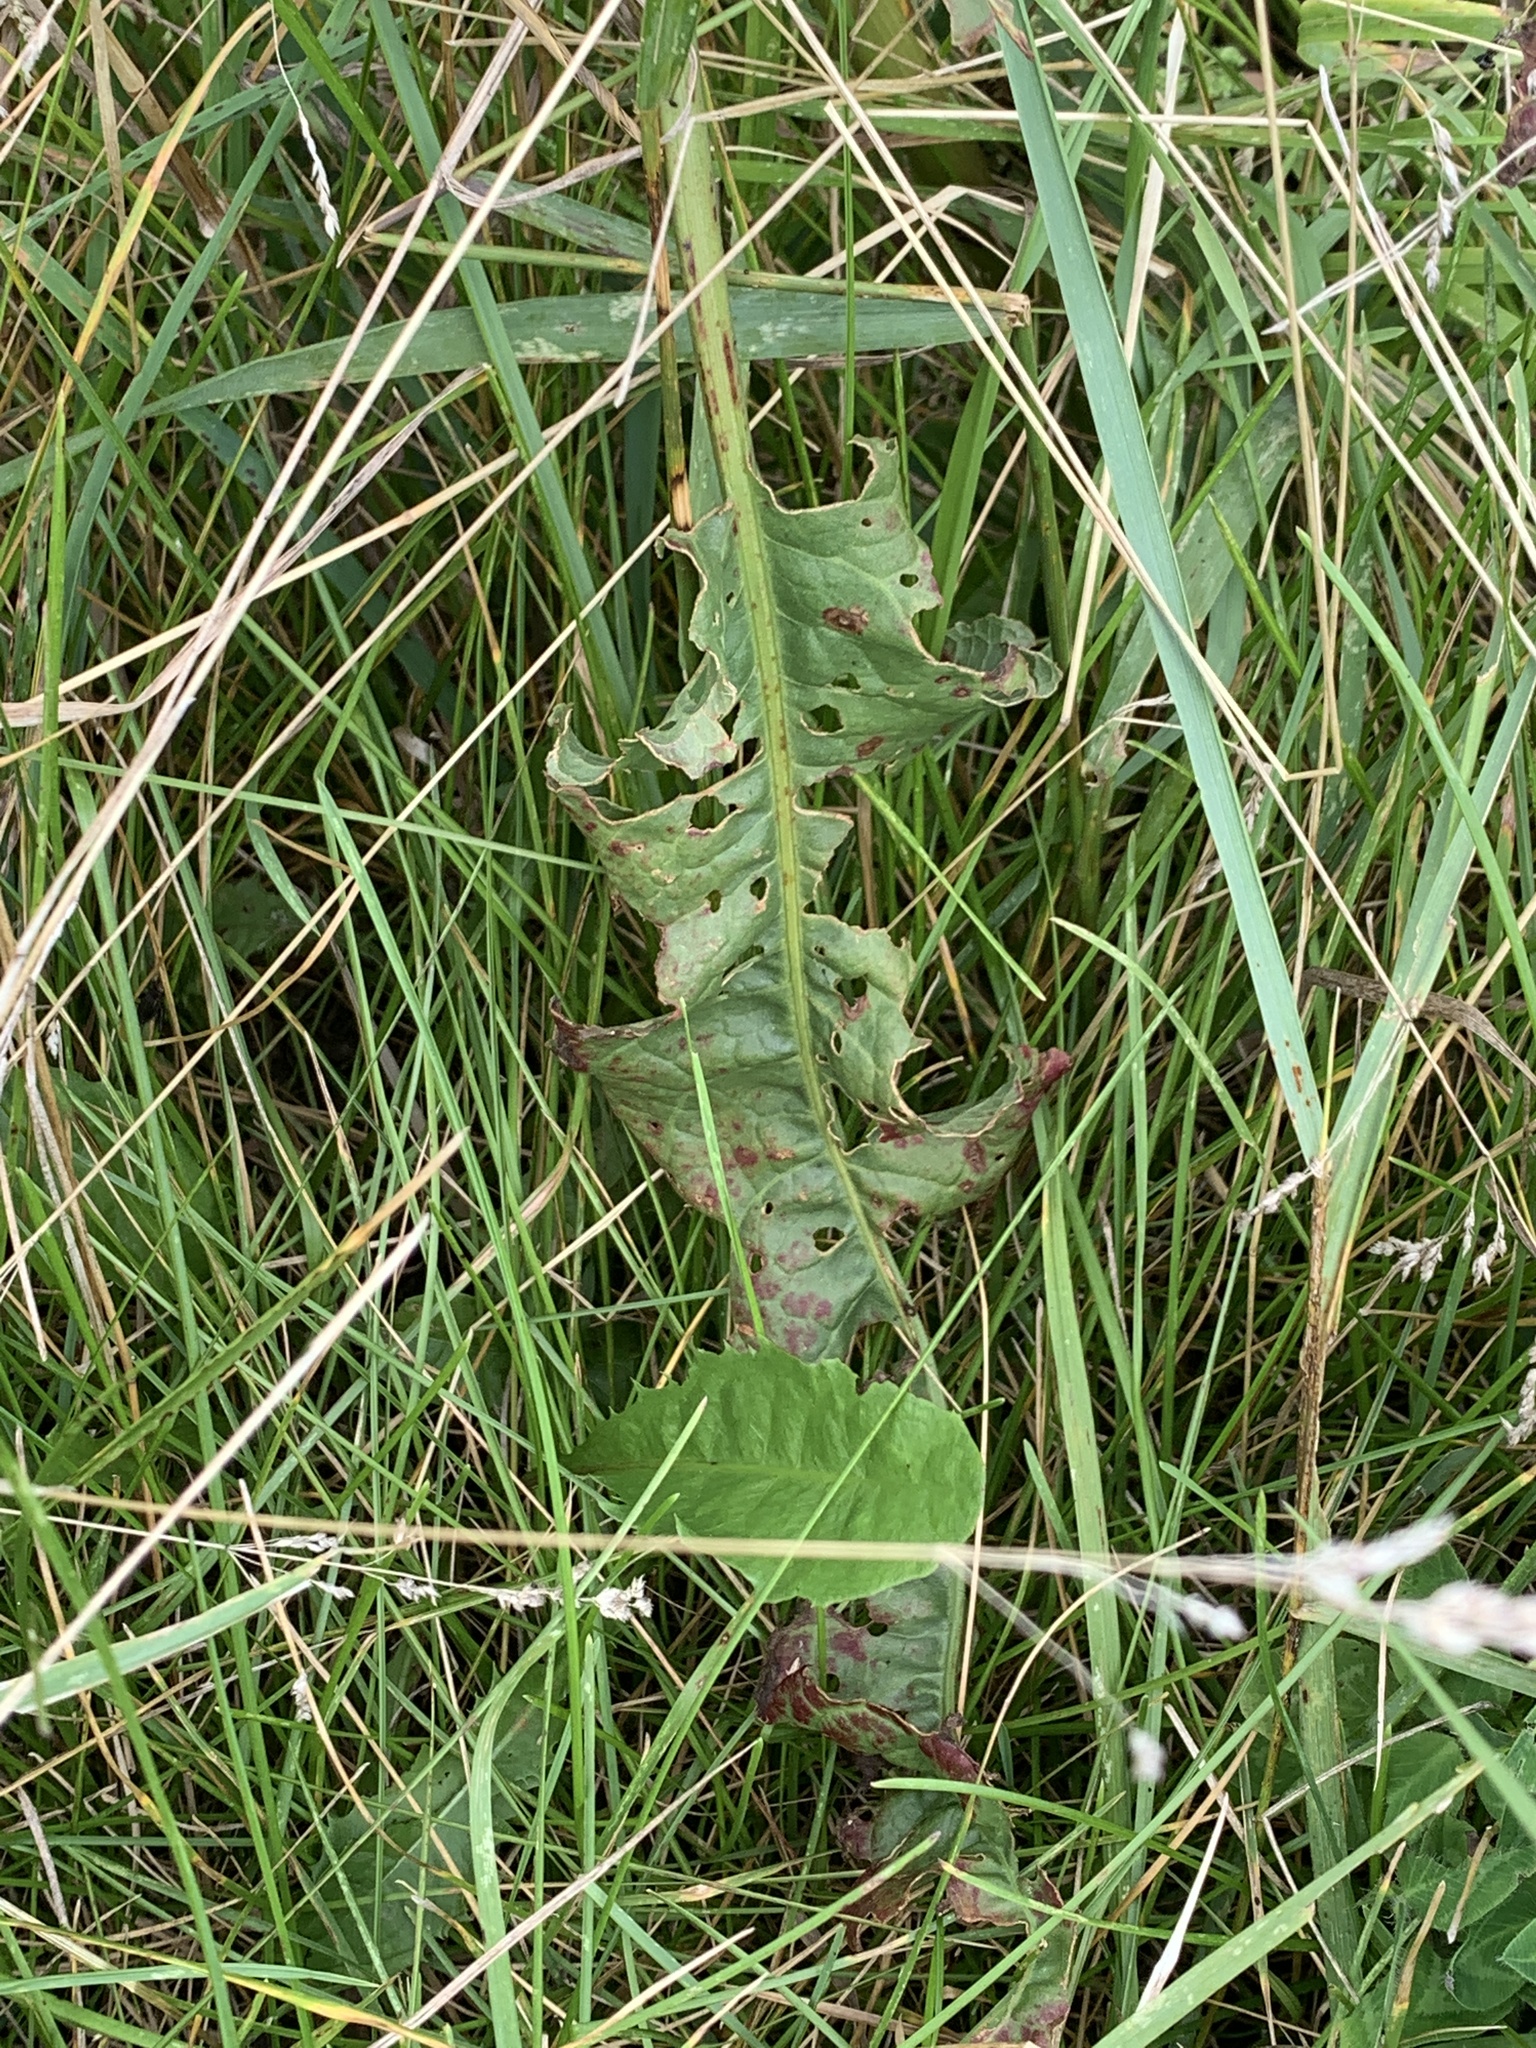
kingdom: Plantae
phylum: Tracheophyta
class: Magnoliopsida
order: Caryophyllales
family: Polygonaceae
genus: Rumex
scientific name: Rumex crispus
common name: Curled dock
